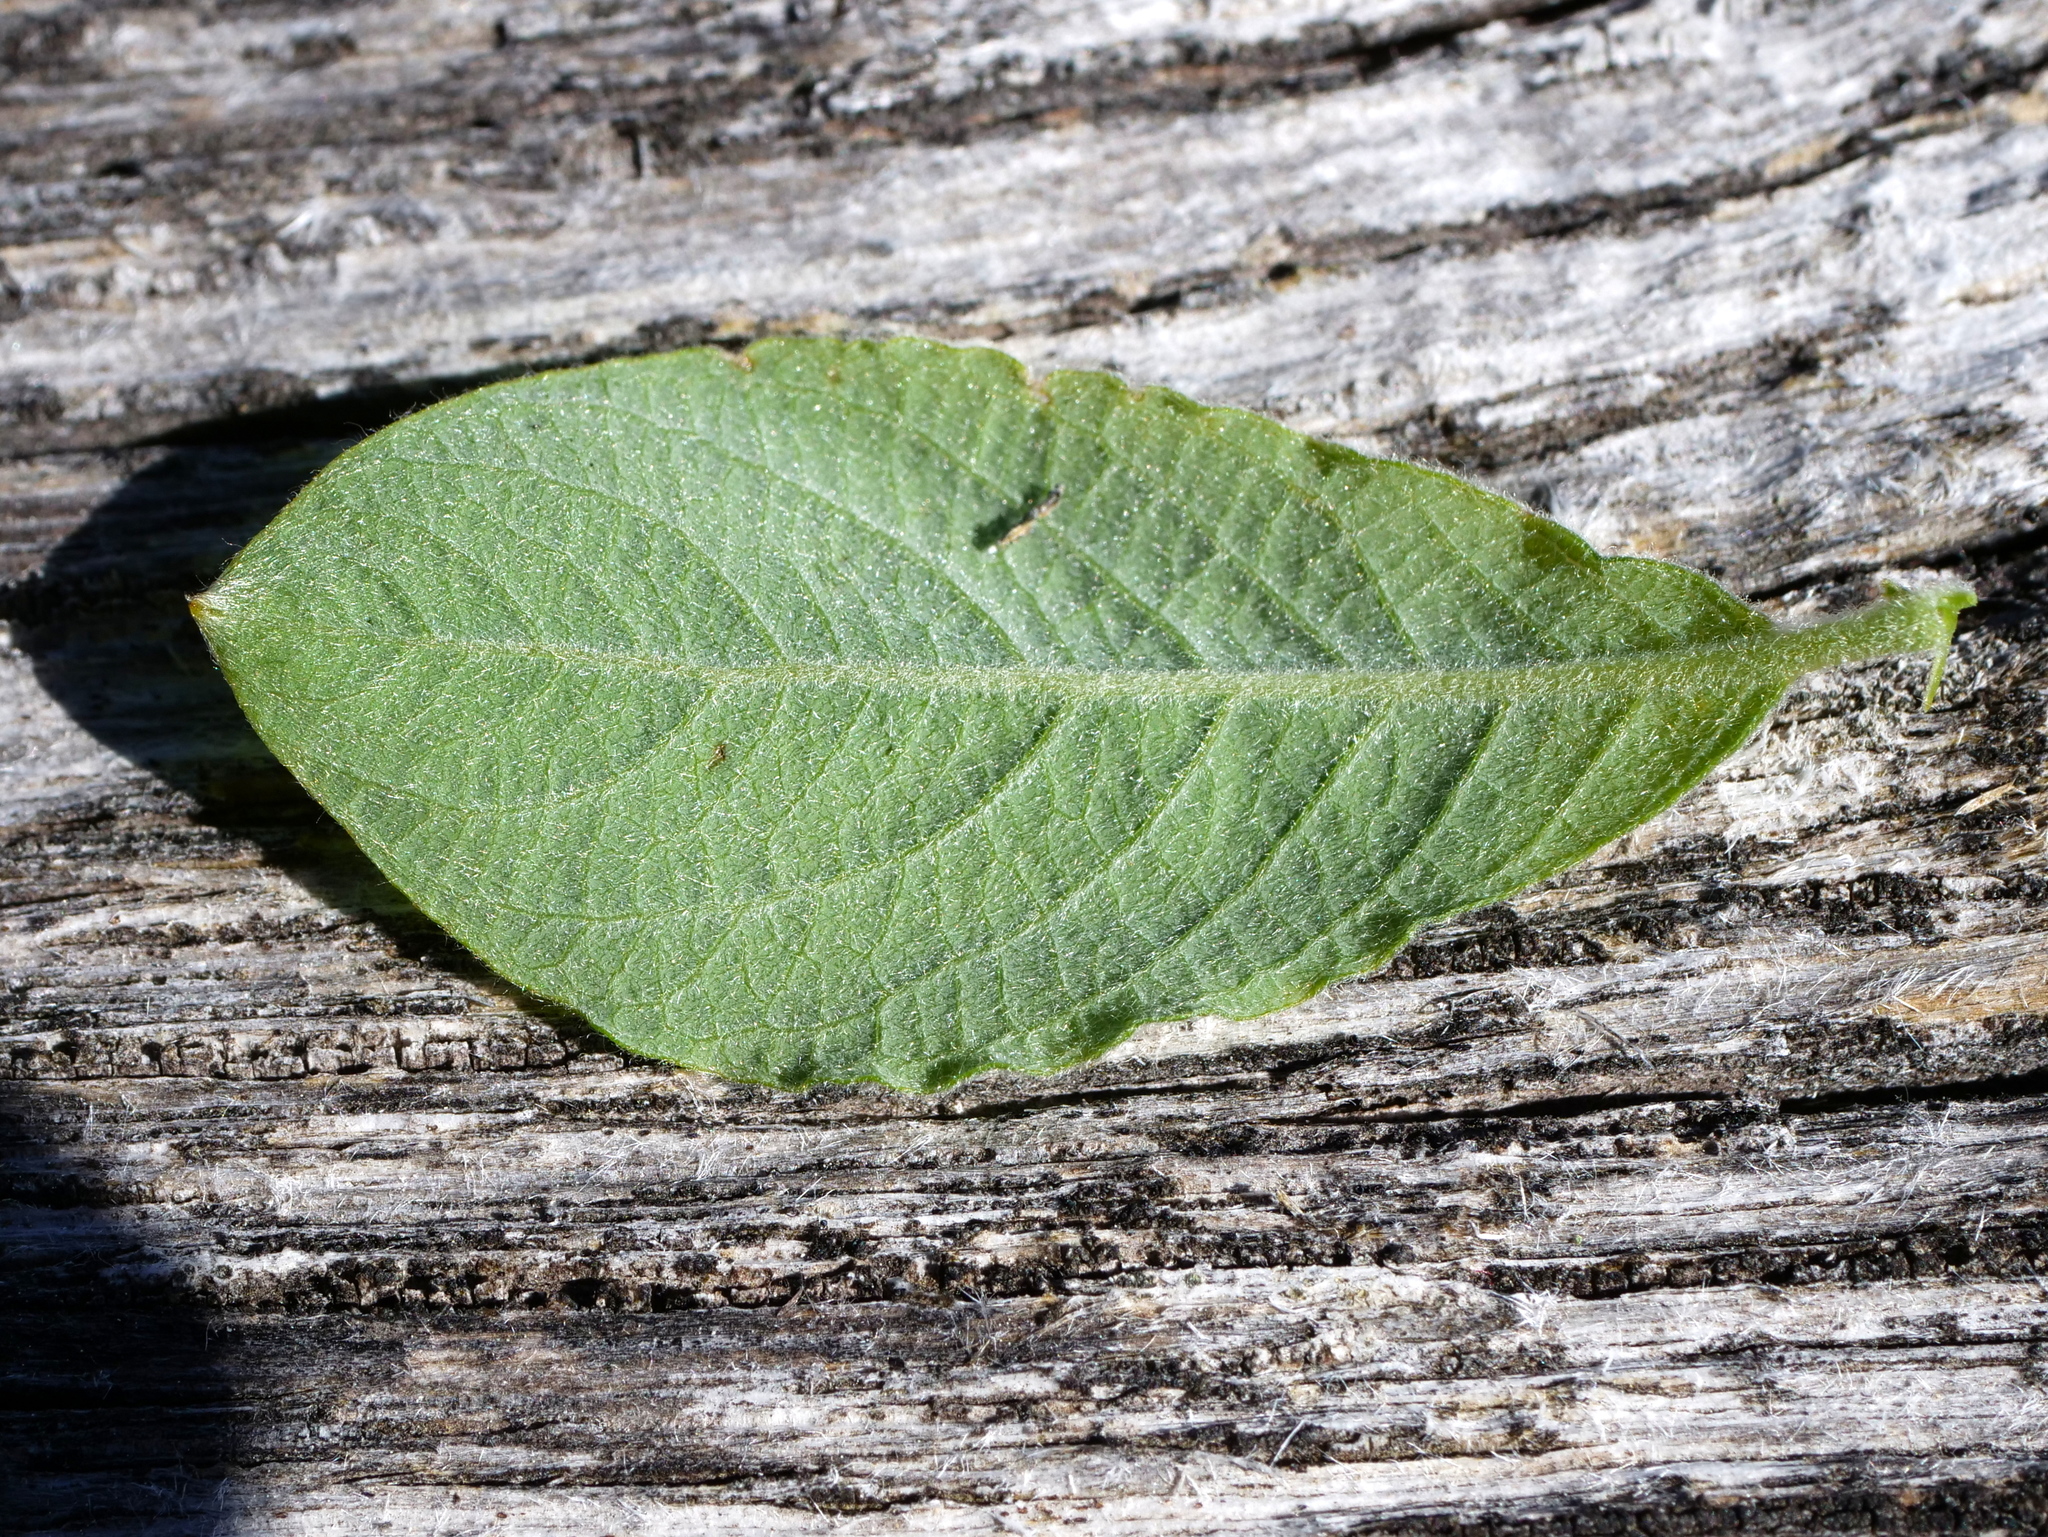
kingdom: Plantae
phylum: Tracheophyta
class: Magnoliopsida
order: Malpighiales
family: Salicaceae
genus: Salix
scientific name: Salix cinerea
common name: Common sallow
